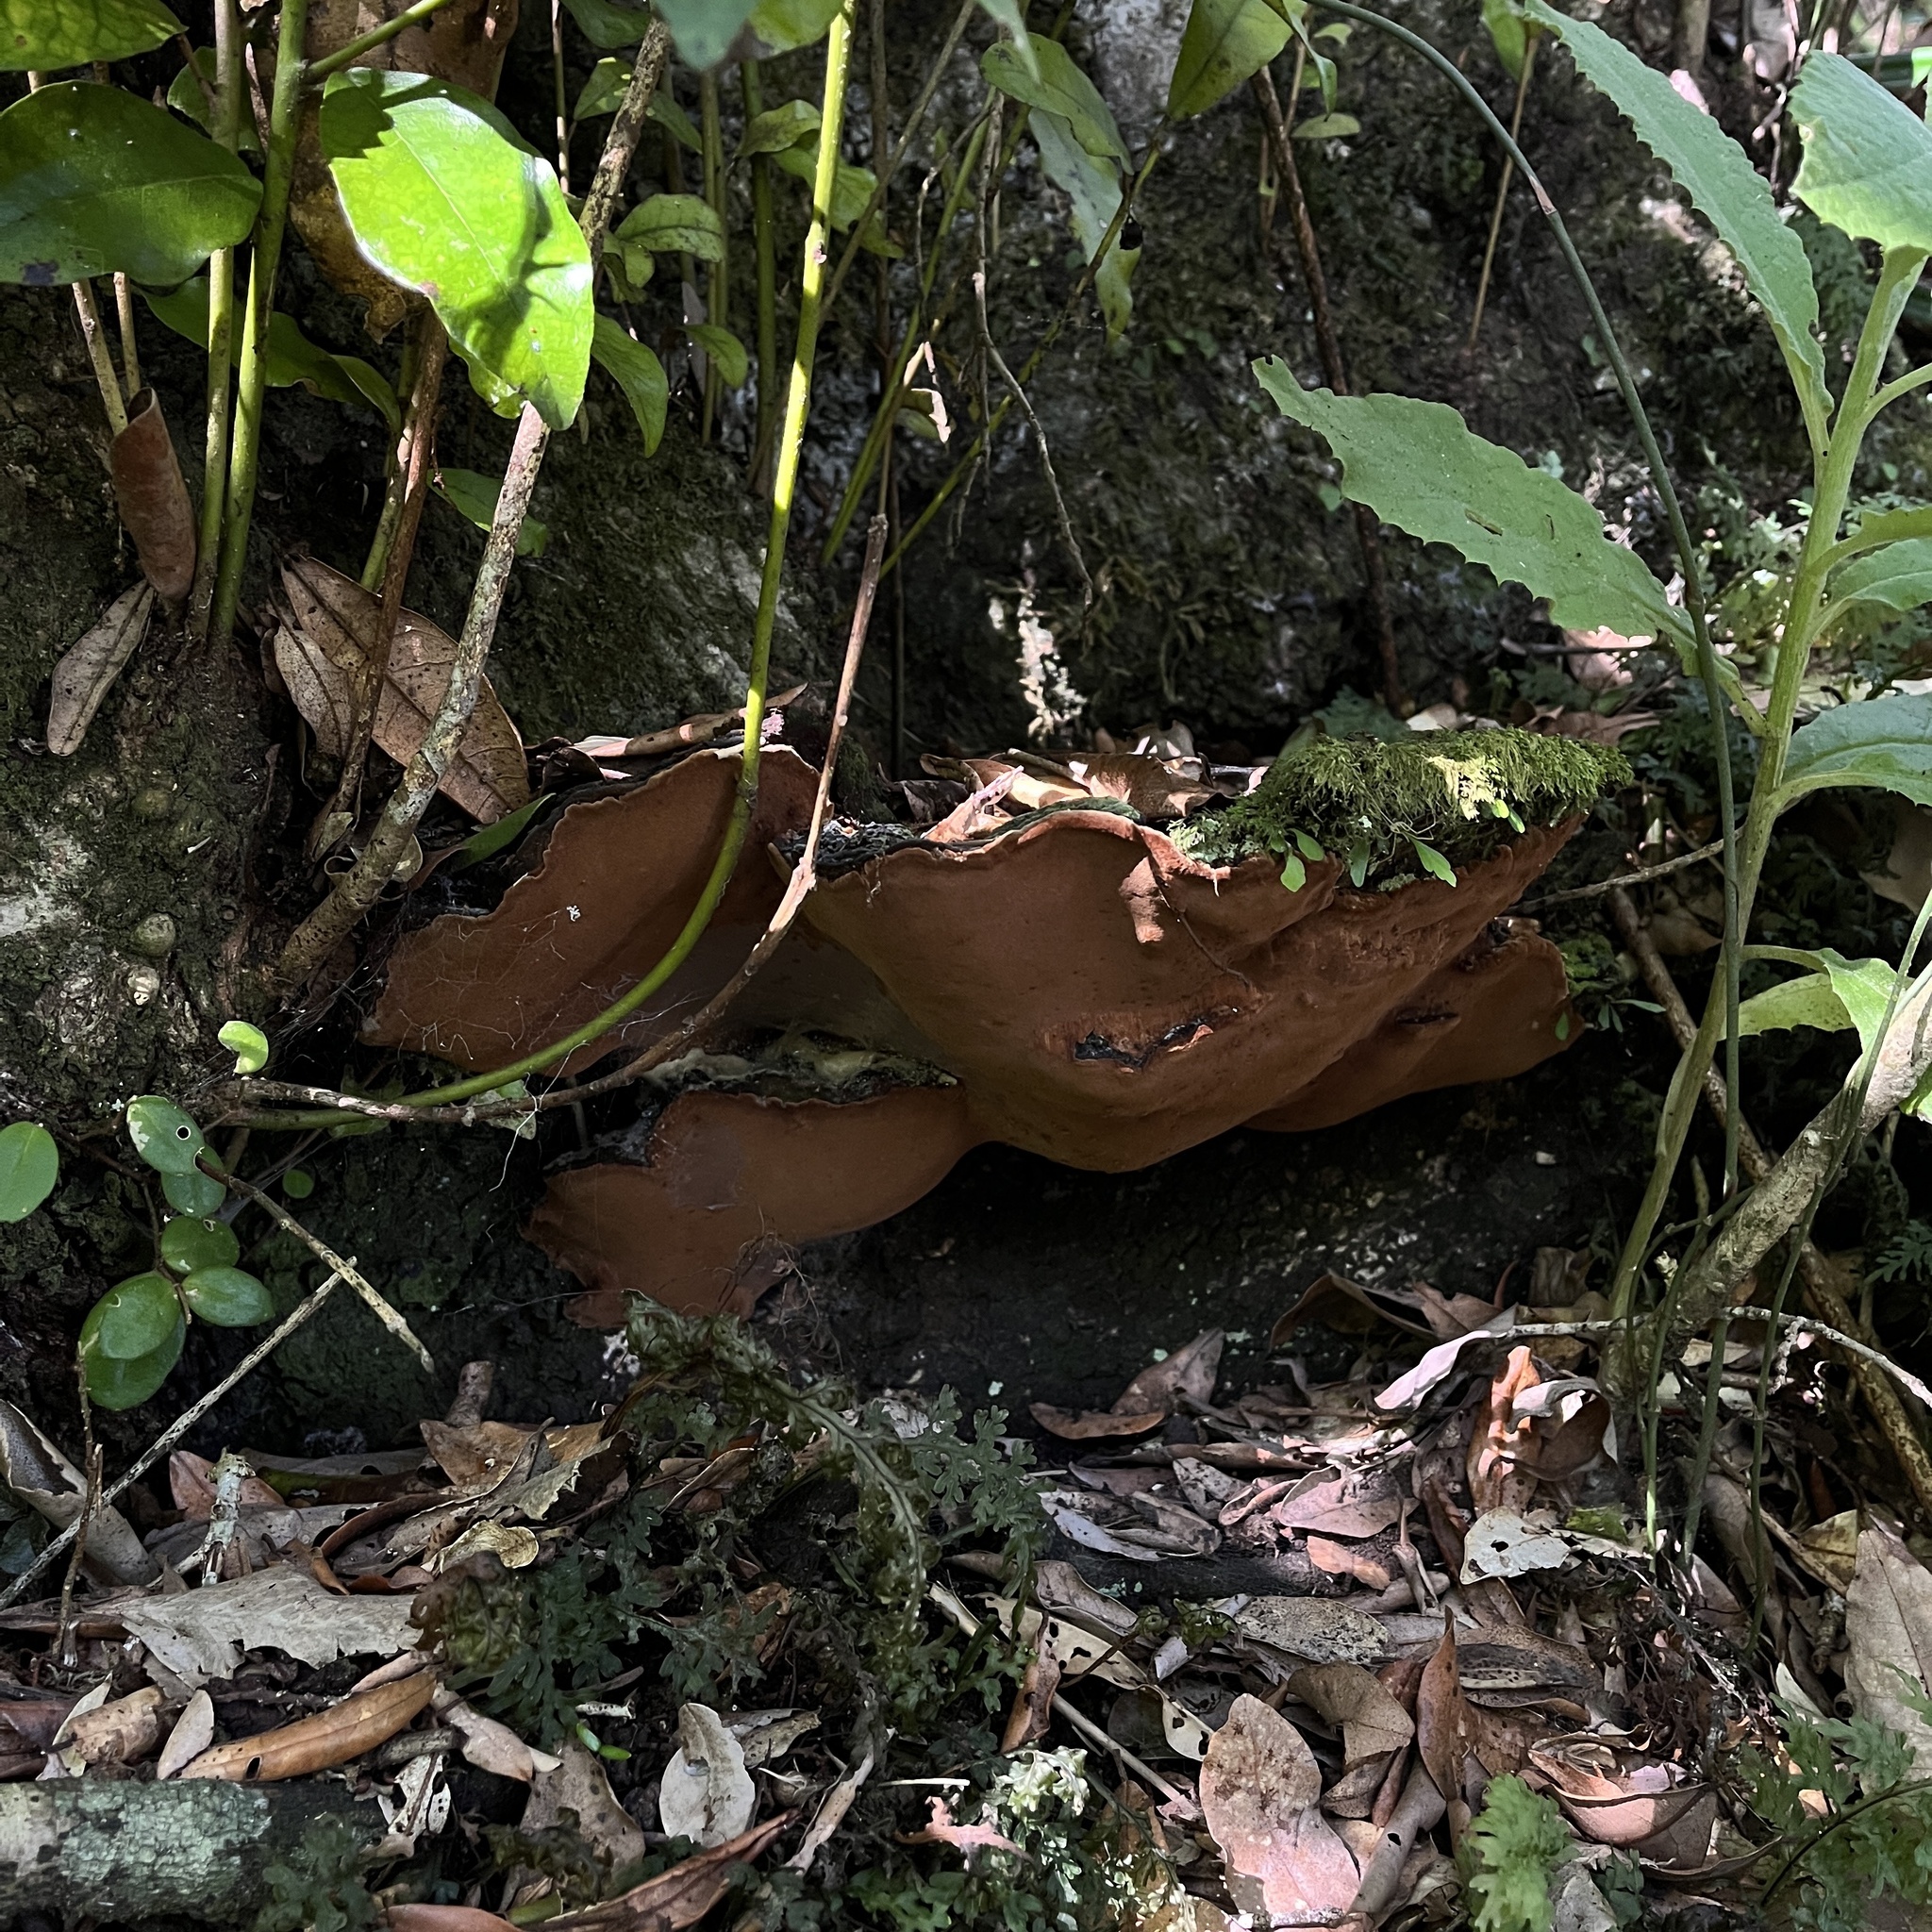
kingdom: Fungi
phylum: Basidiomycota
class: Agaricomycetes
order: Hymenochaetales
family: Hymenochaetaceae
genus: Fuscoporia
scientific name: Fuscoporia senex
